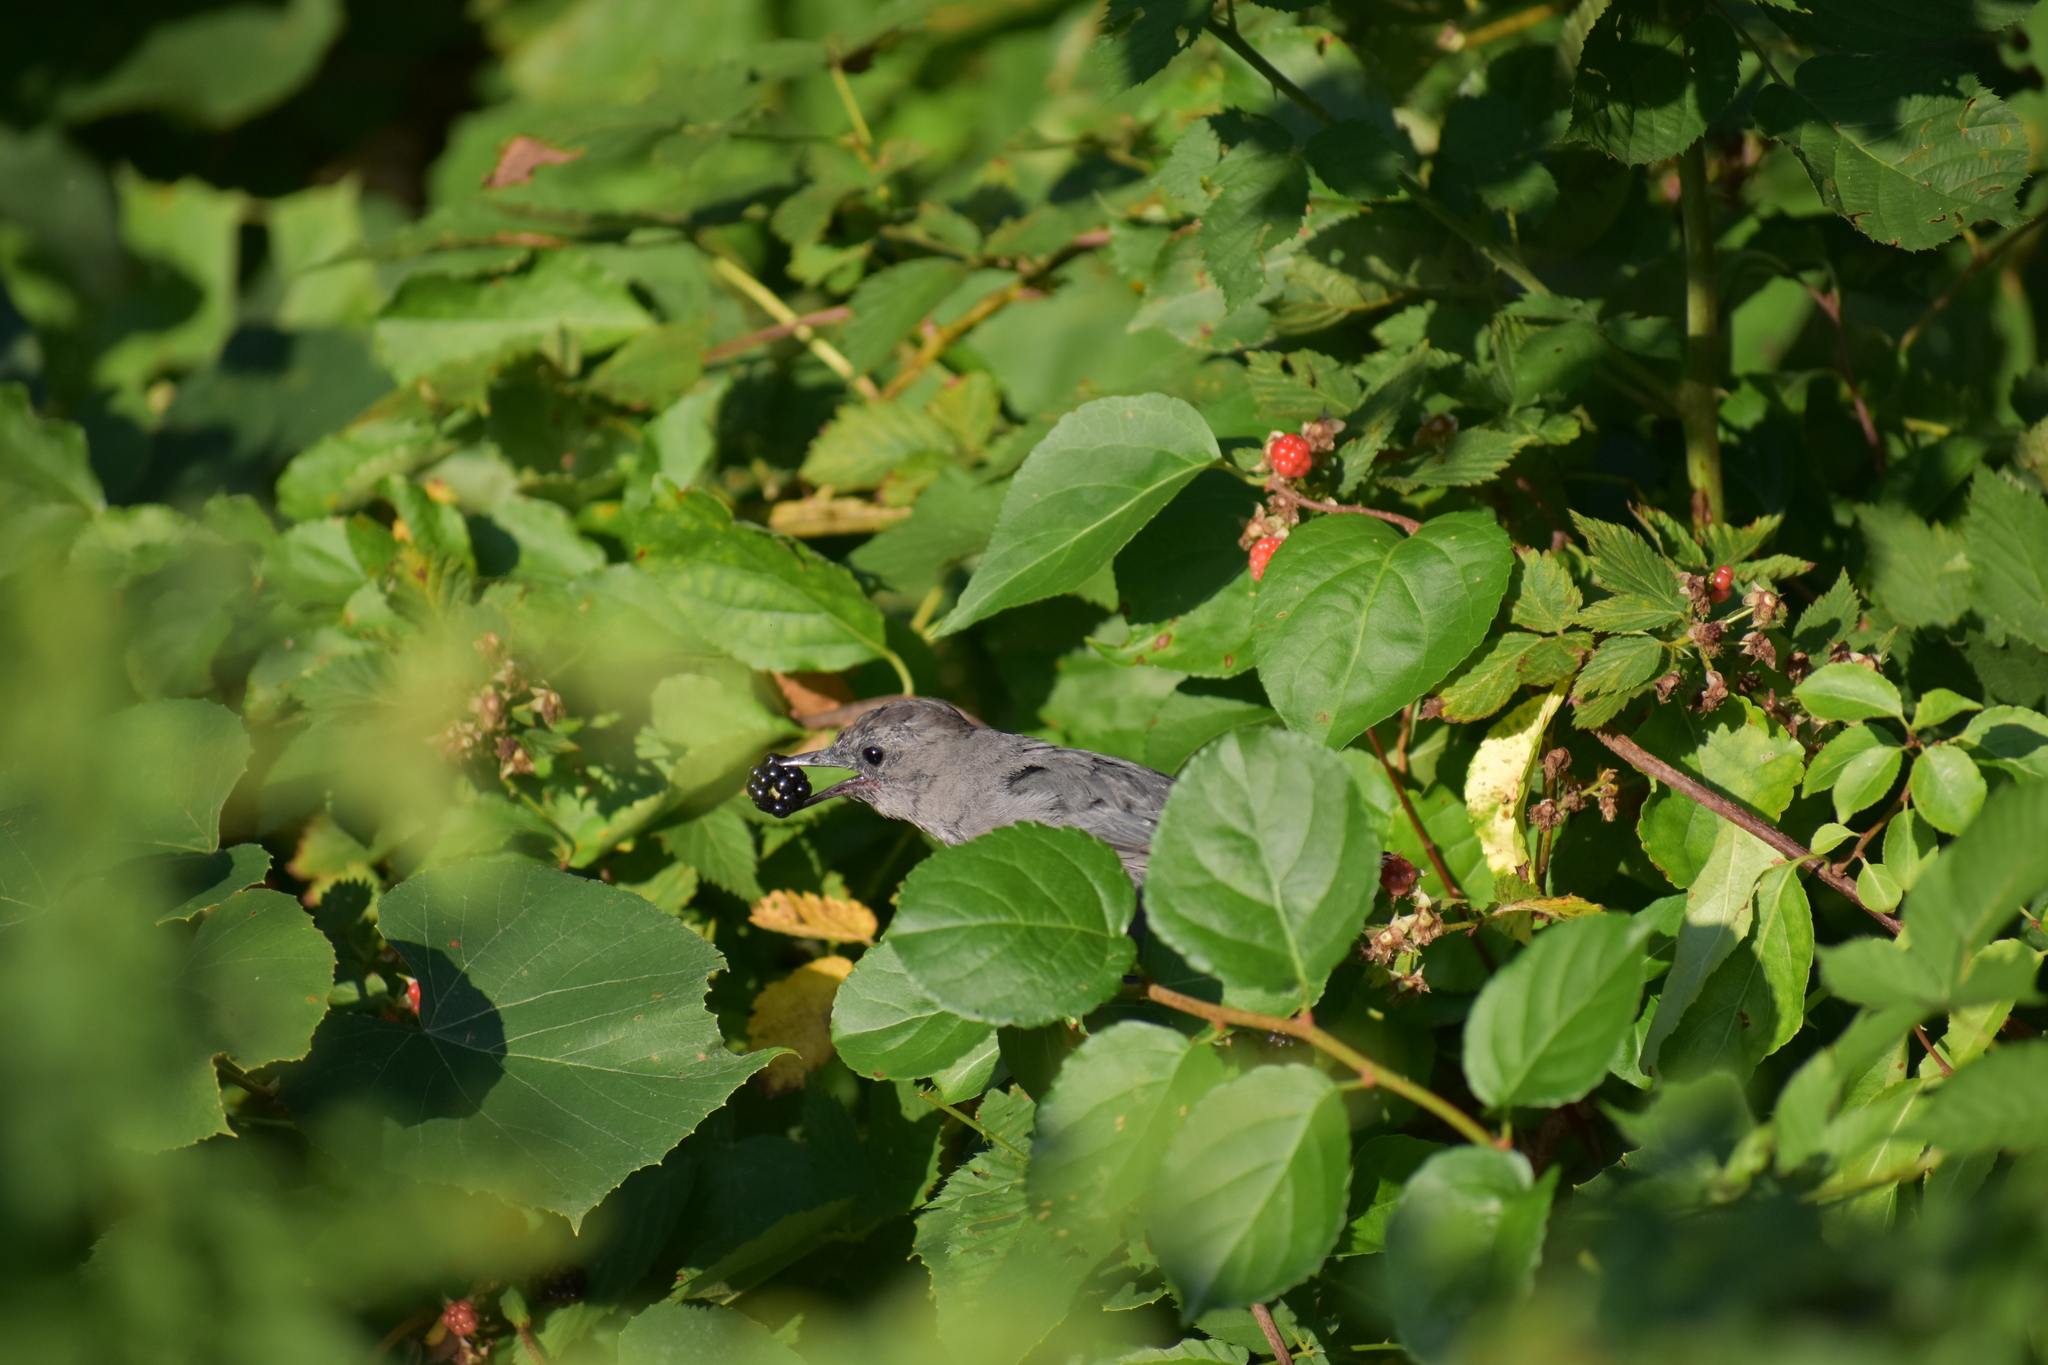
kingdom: Animalia
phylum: Chordata
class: Aves
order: Passeriformes
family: Mimidae
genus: Dumetella
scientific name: Dumetella carolinensis
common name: Gray catbird
